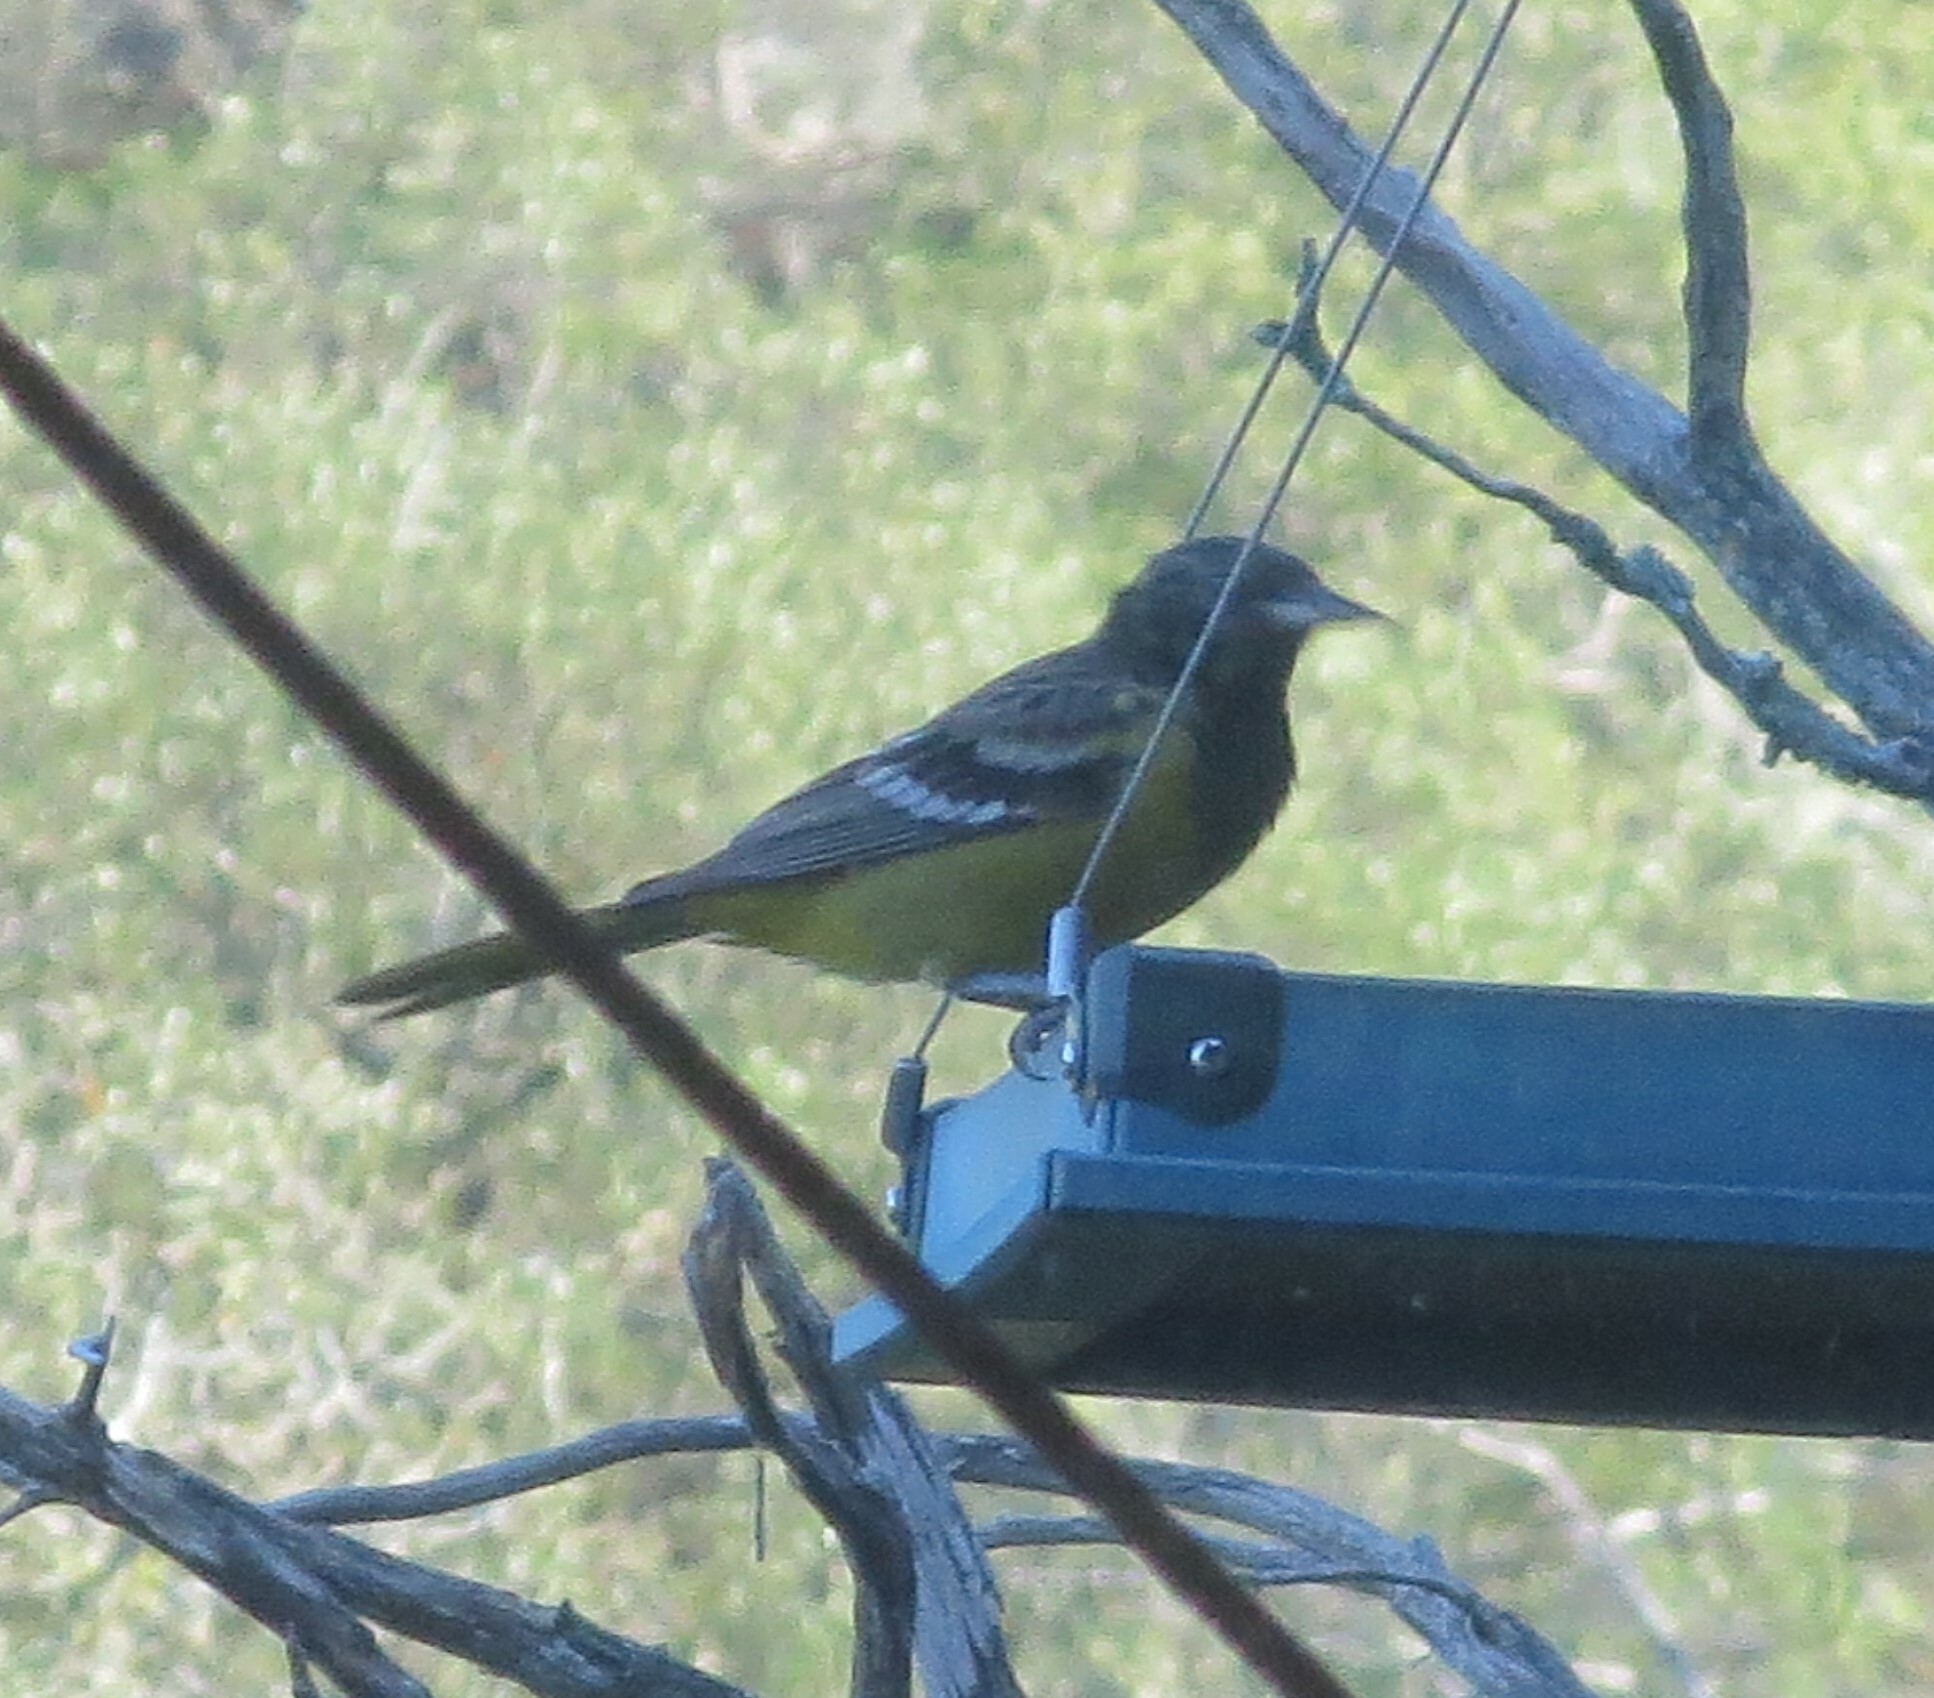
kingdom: Animalia
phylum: Chordata
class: Aves
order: Passeriformes
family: Icteridae
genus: Icterus
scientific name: Icterus parisorum
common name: Scott's oriole
